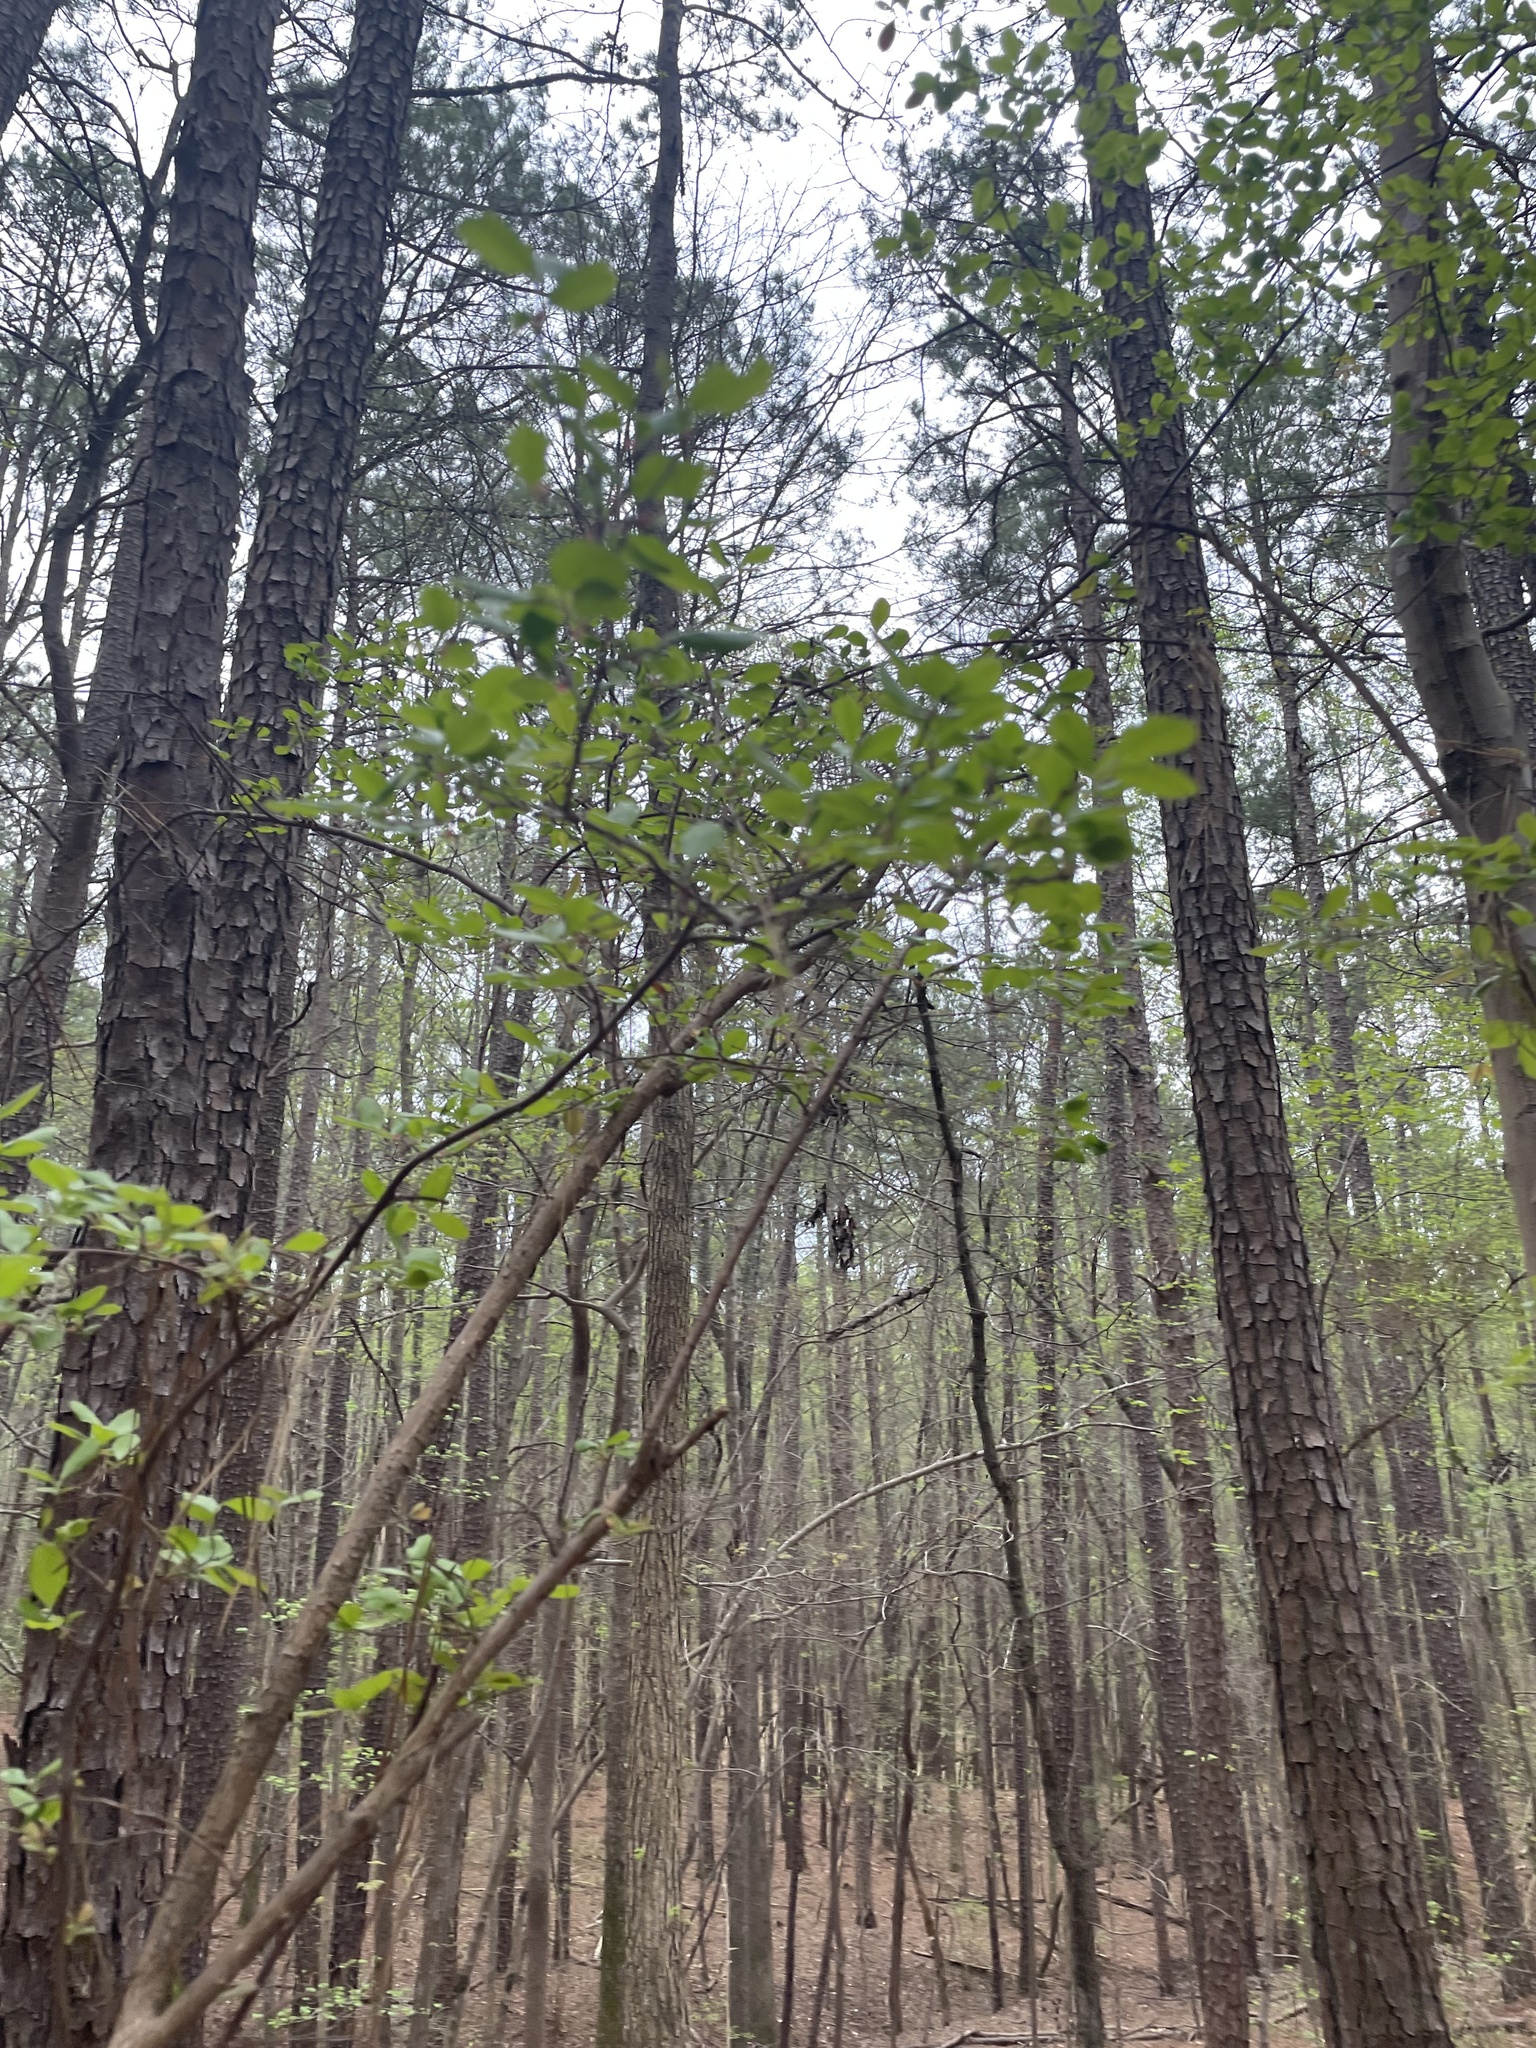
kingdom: Plantae
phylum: Tracheophyta
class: Magnoliopsida
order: Ericales
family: Ericaceae
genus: Vaccinium
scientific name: Vaccinium arboreum
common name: Farkleberry
